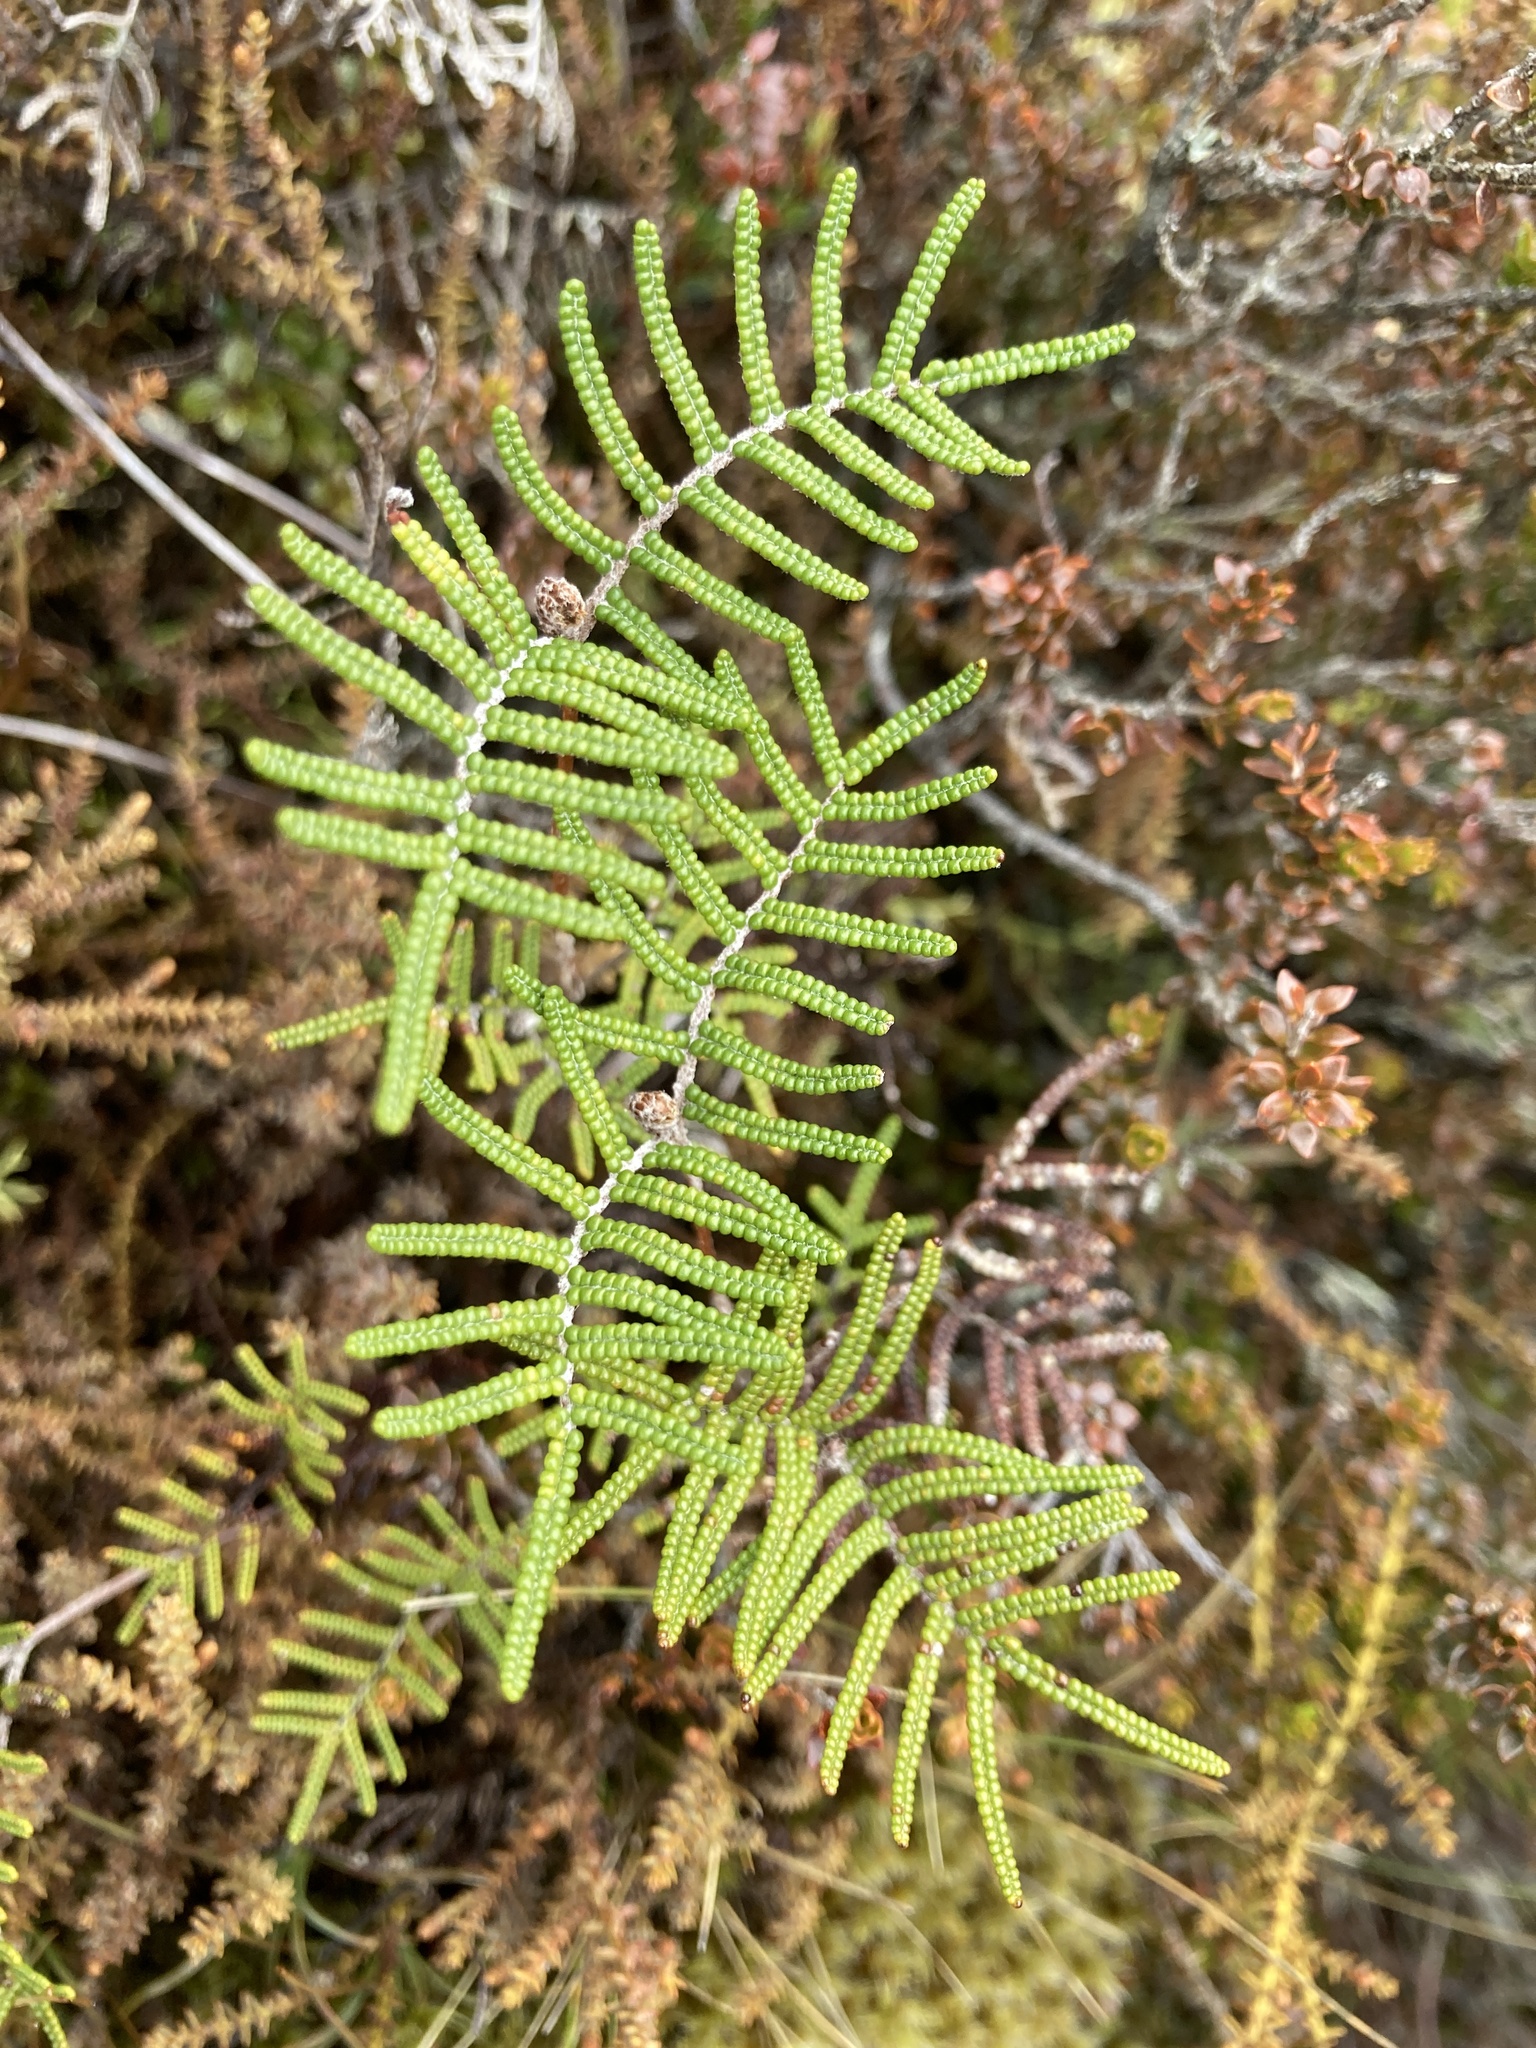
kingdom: Plantae
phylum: Tracheophyta
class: Polypodiopsida
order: Gleicheniales
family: Gleicheniaceae
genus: Gleichenia
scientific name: Gleichenia alpina
